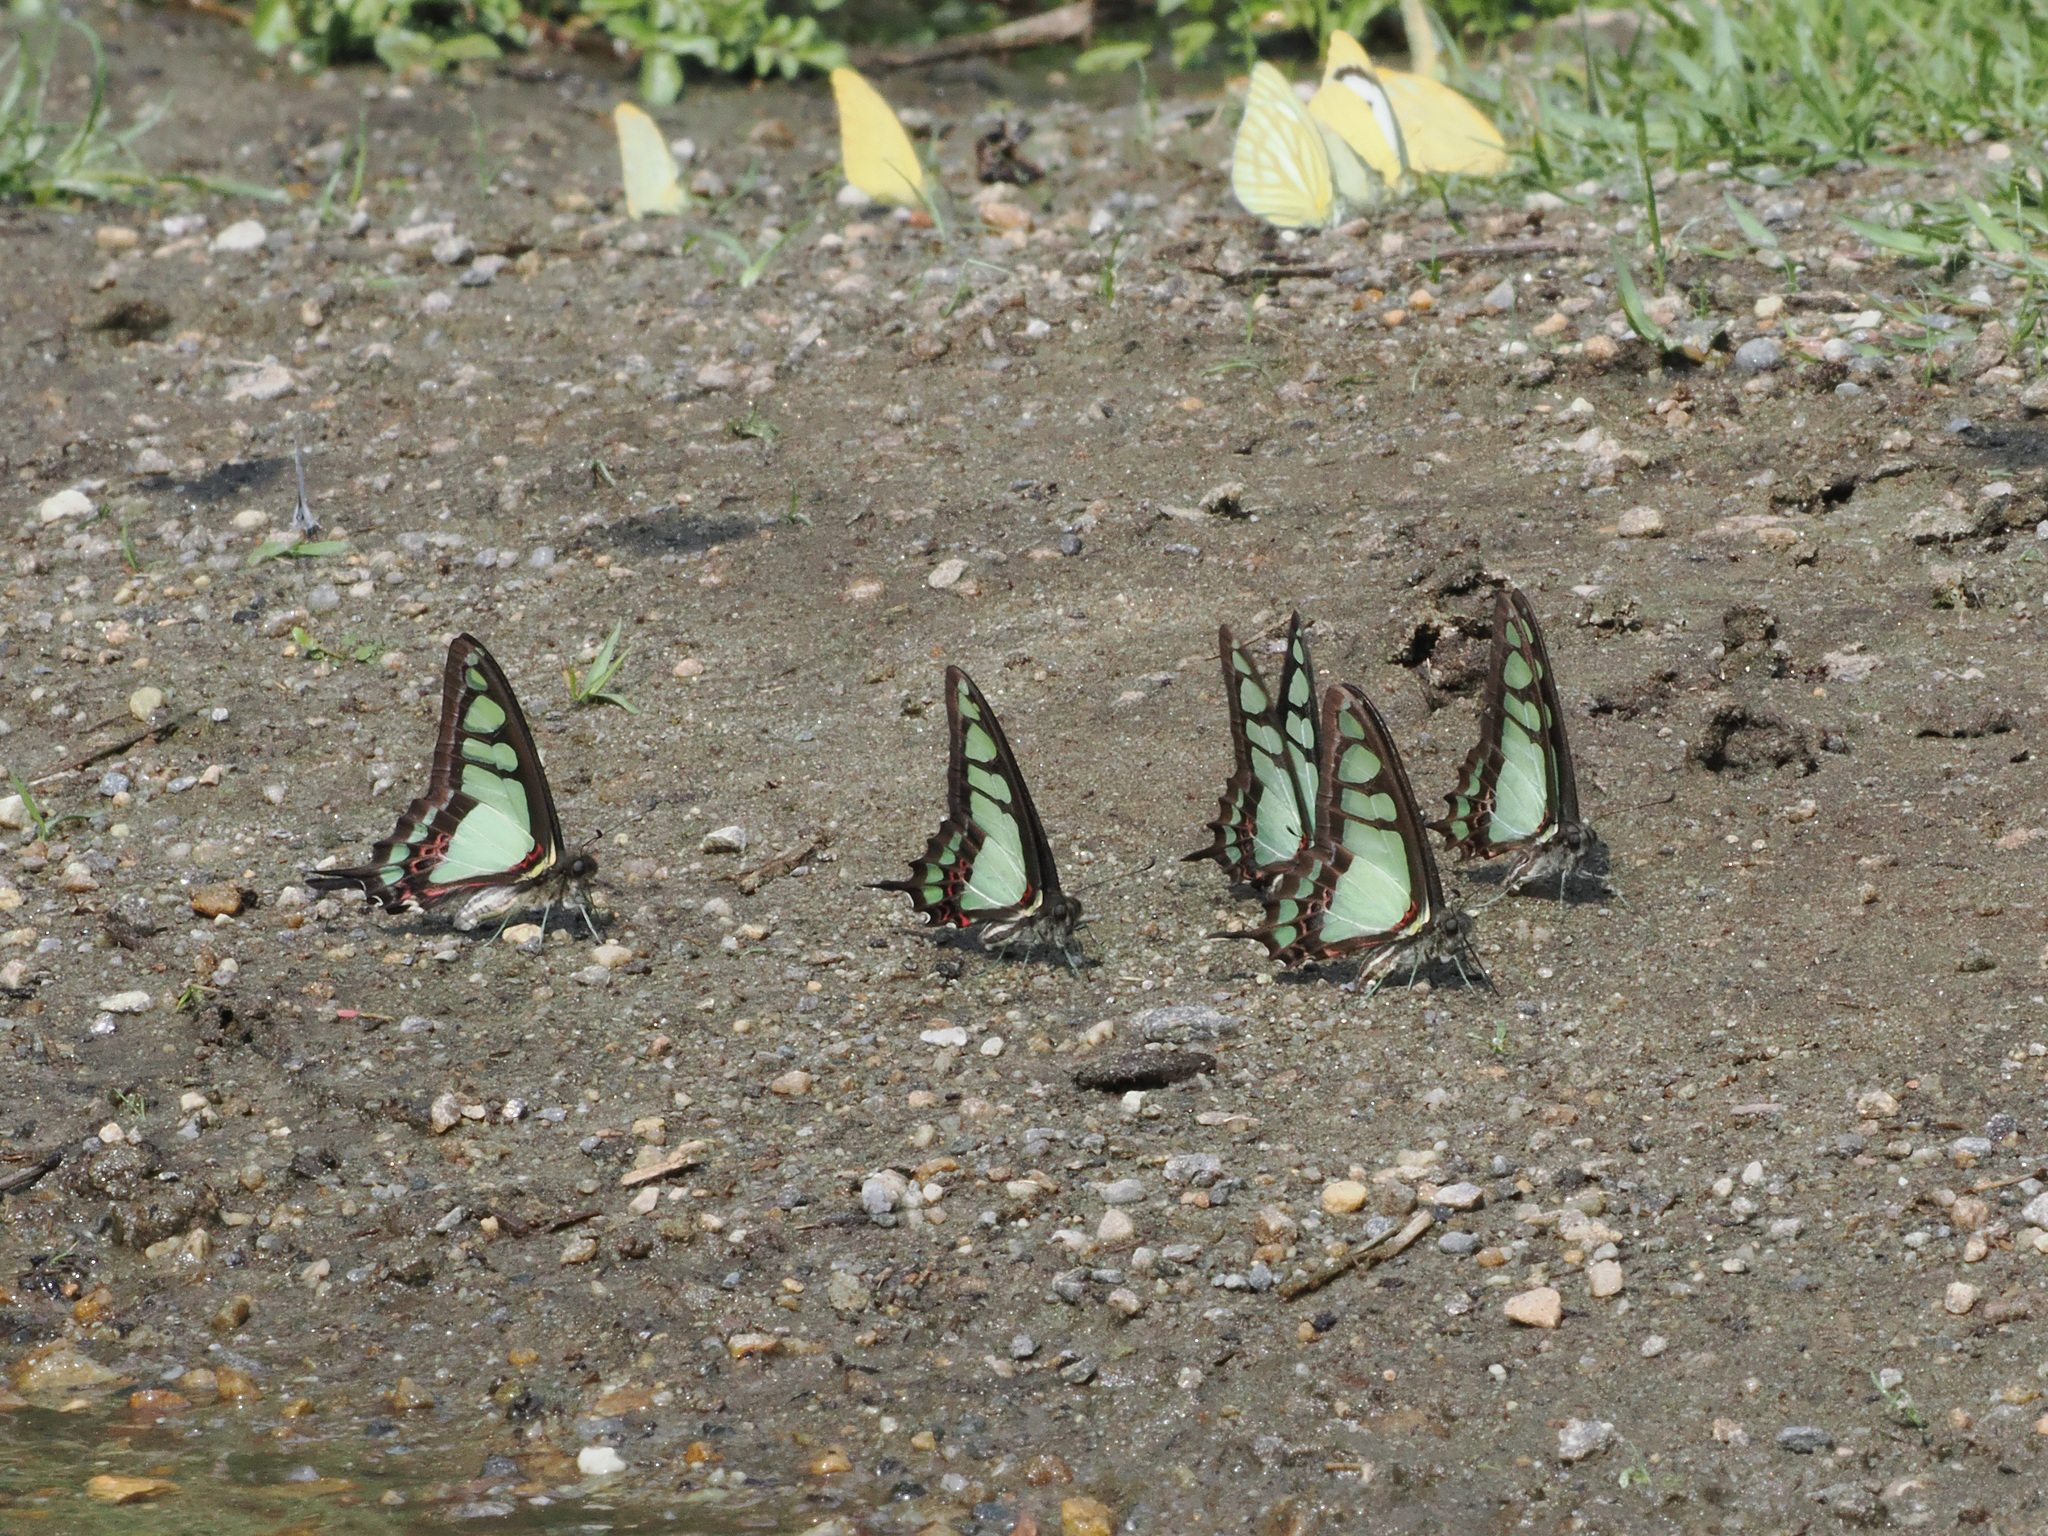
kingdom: Animalia
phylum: Arthropoda
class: Insecta
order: Lepidoptera
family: Papilionidae
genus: Graphium
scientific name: Graphium cloanthus
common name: Glassy bluebottle
